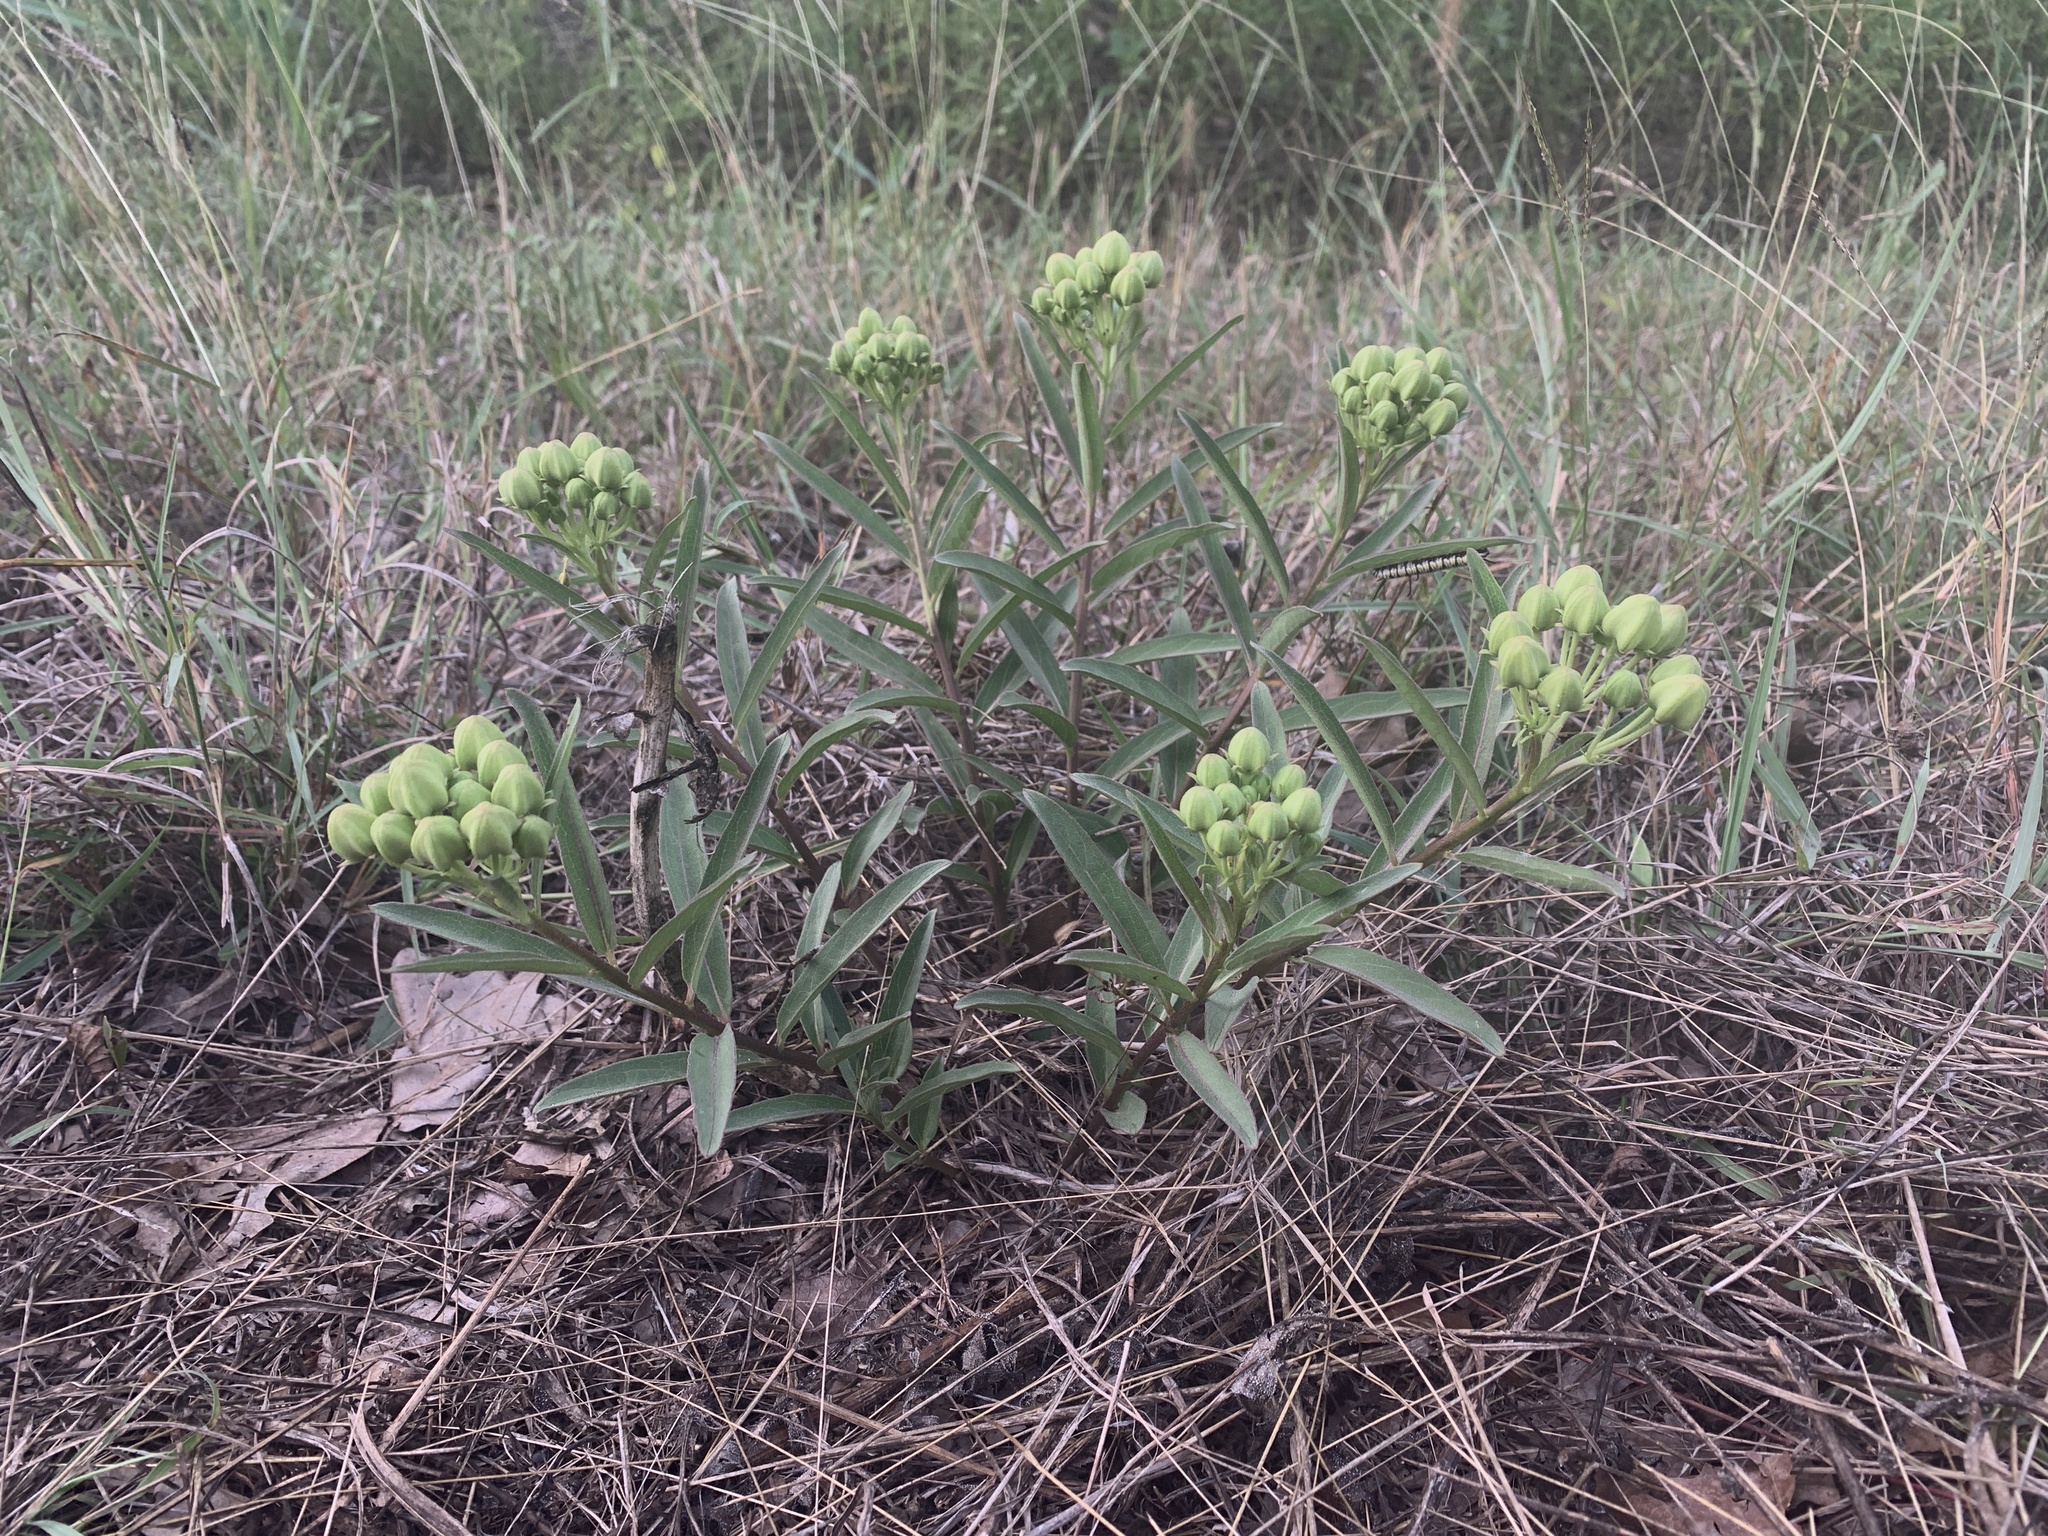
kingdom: Plantae
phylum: Tracheophyta
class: Magnoliopsida
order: Gentianales
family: Apocynaceae
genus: Asclepias
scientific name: Asclepias viridis
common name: Antelope-horns
